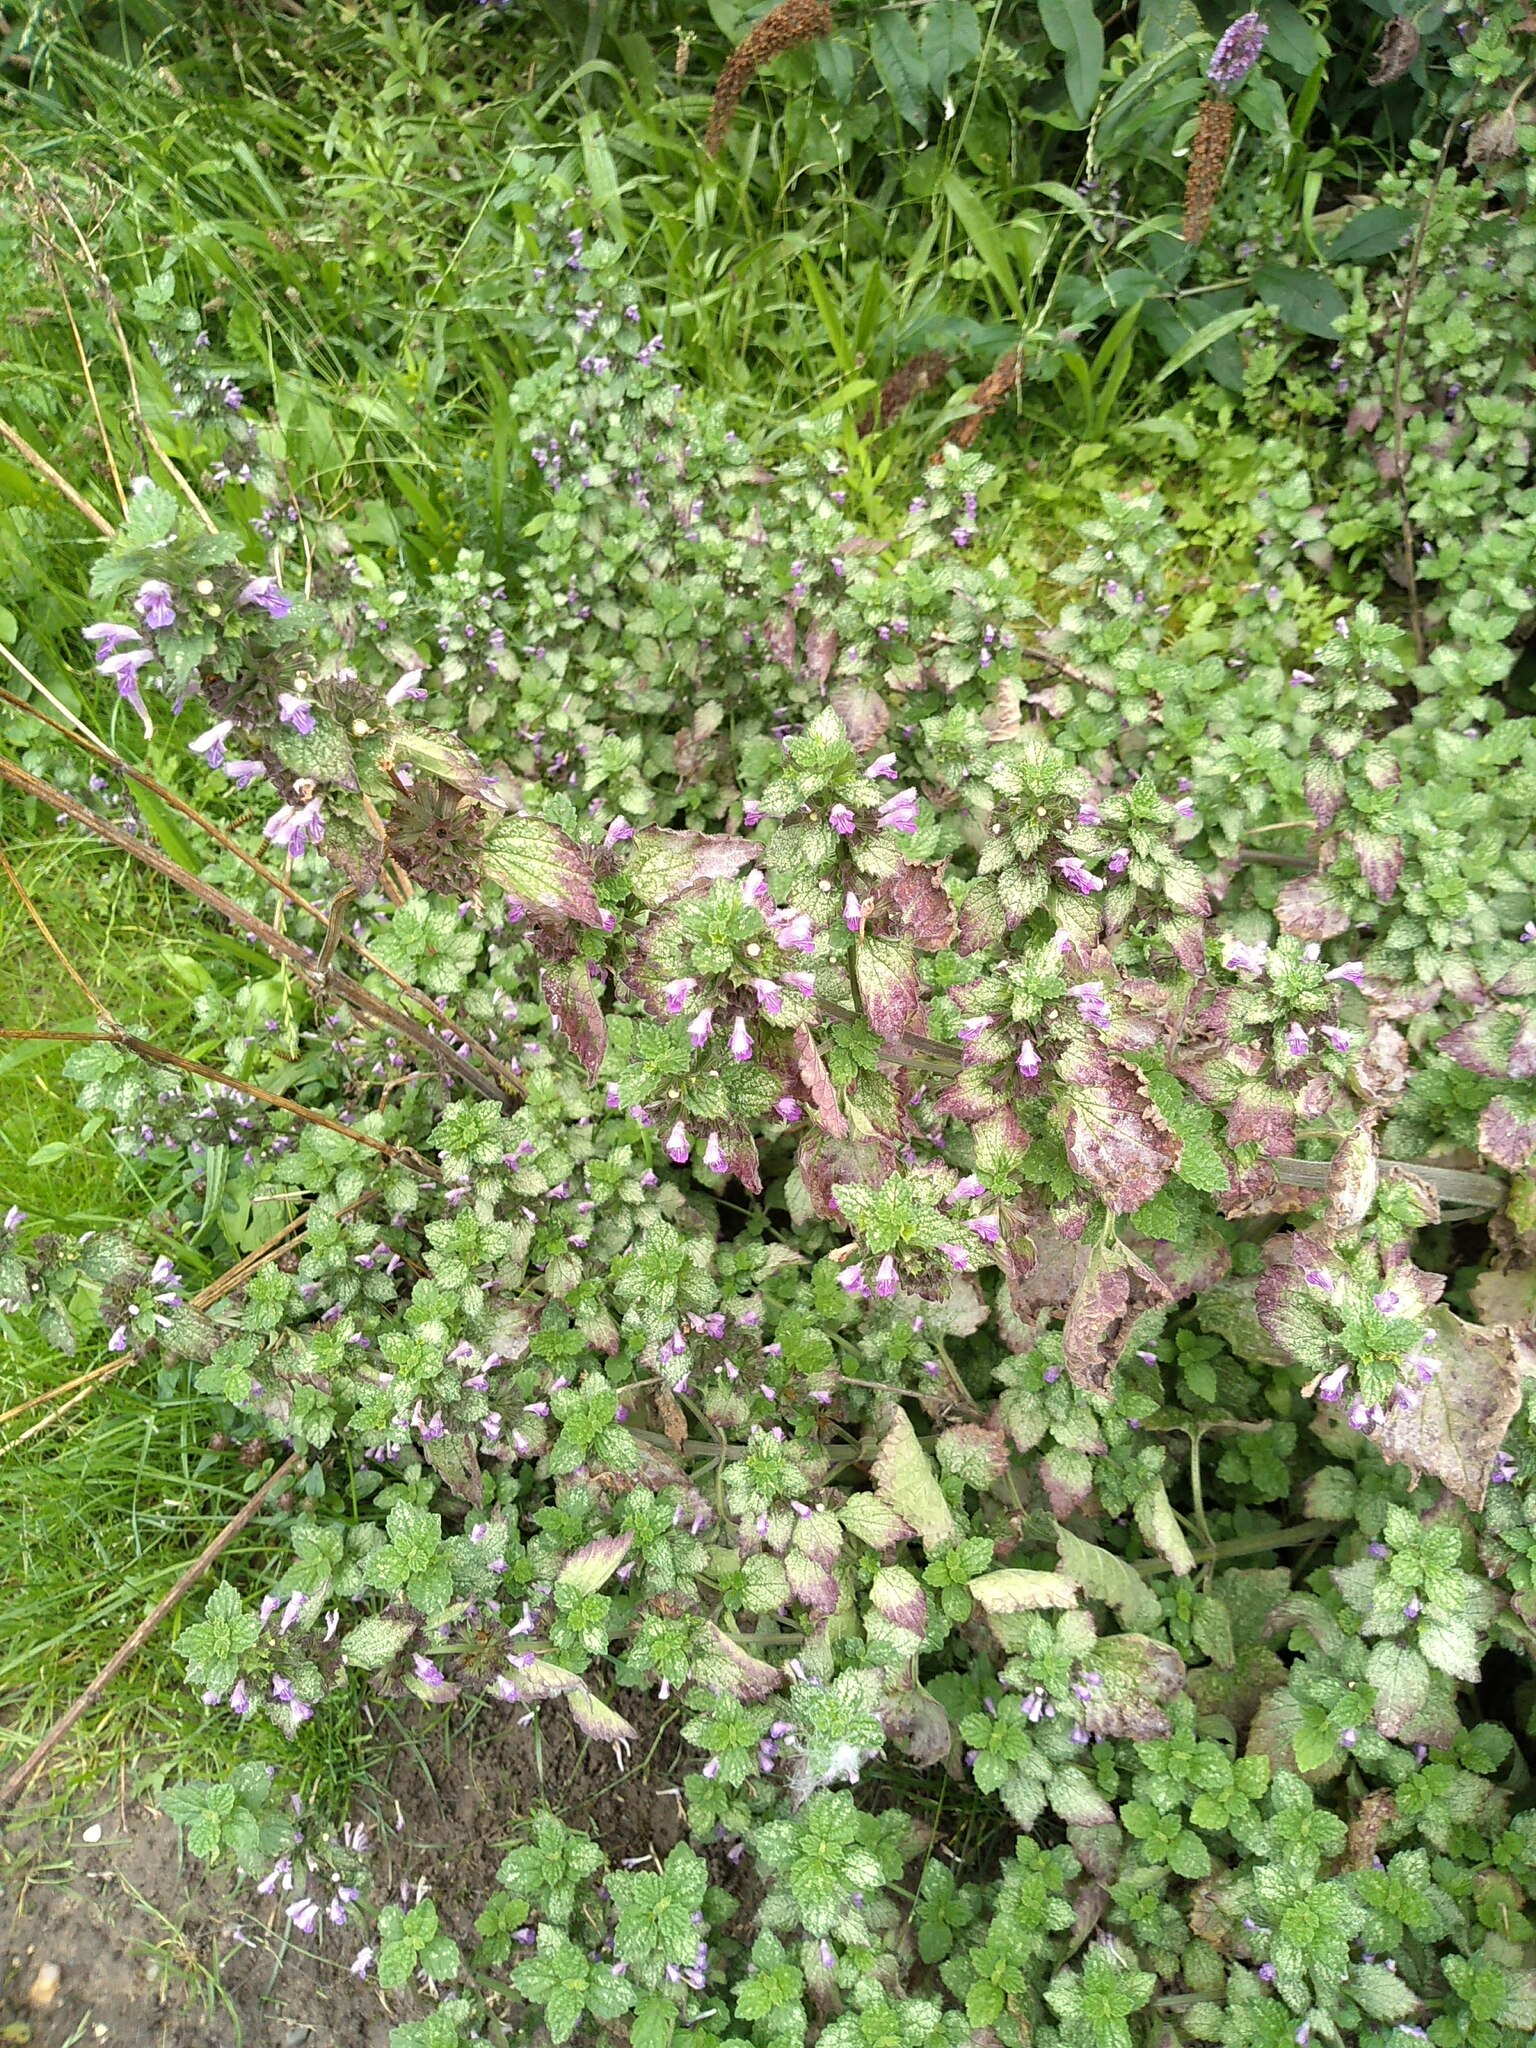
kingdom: Plantae
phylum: Tracheophyta
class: Magnoliopsida
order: Lamiales
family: Lamiaceae
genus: Ballota
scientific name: Ballota nigra
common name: Black horehound
